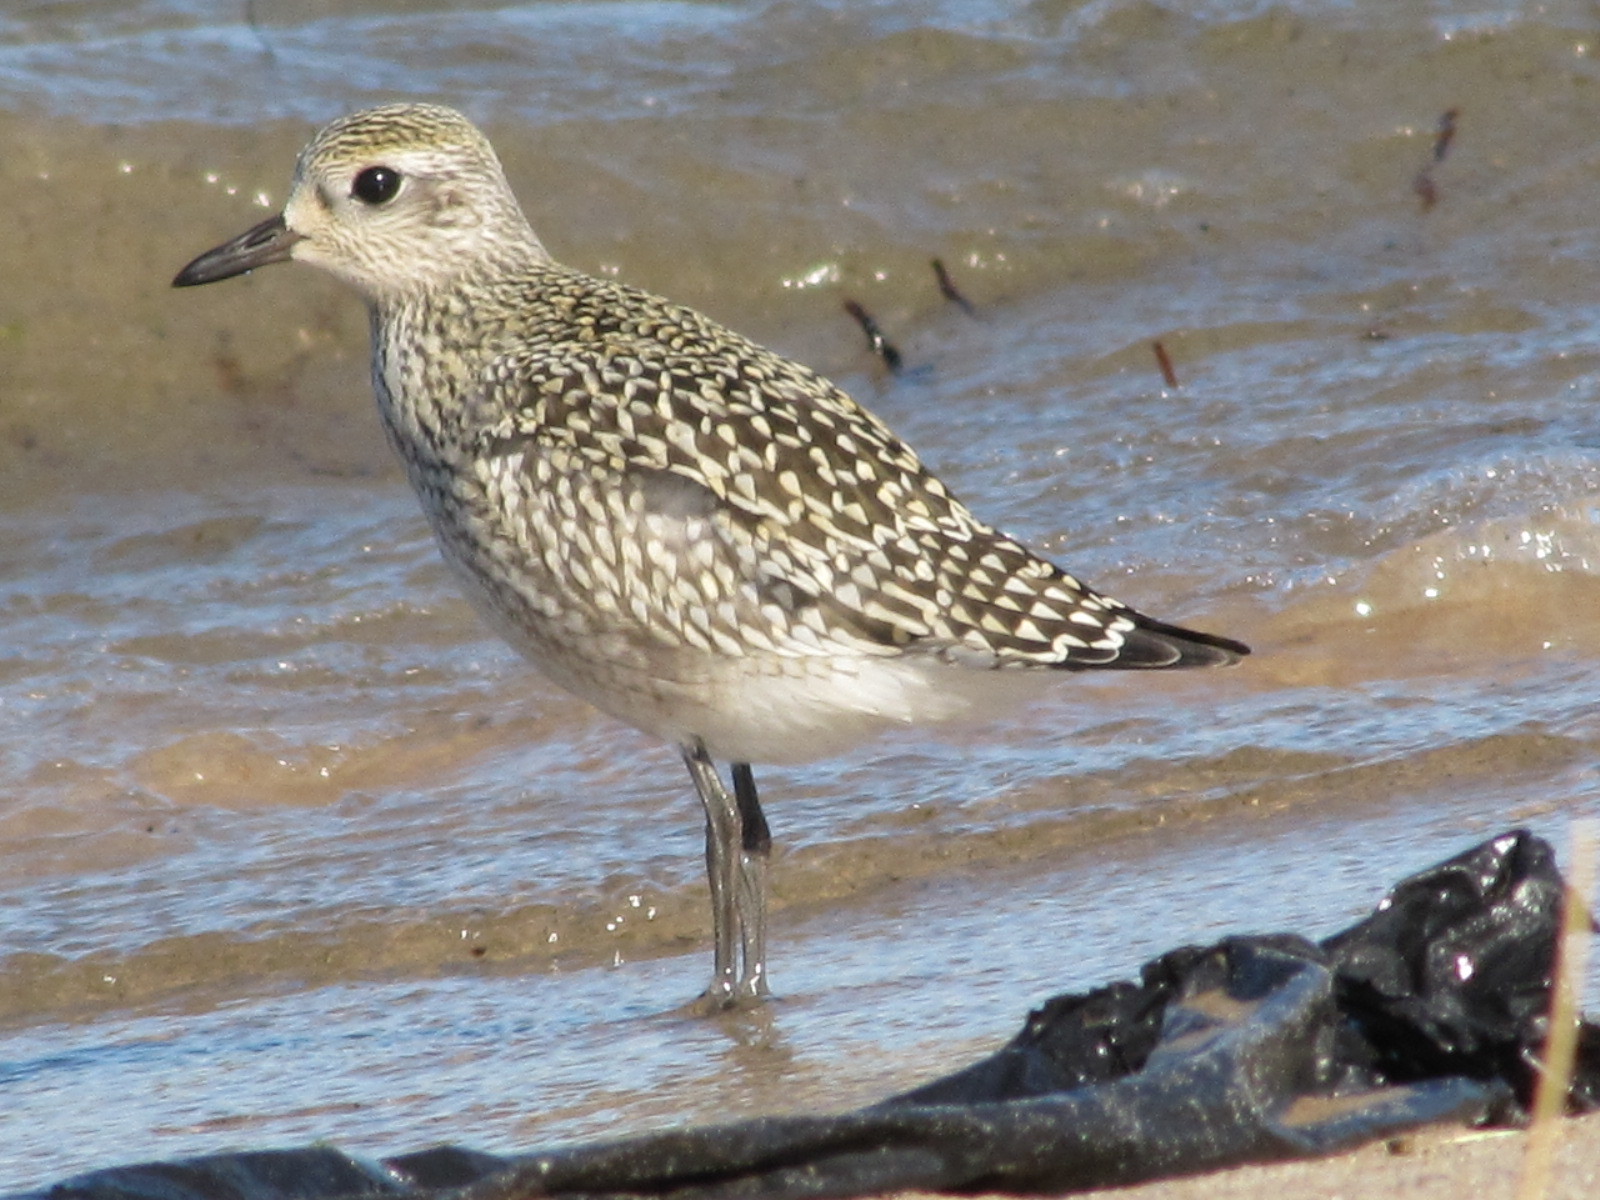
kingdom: Animalia
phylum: Chordata
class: Aves
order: Charadriiformes
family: Charadriidae
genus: Pluvialis
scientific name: Pluvialis squatarola
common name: Grey plover
